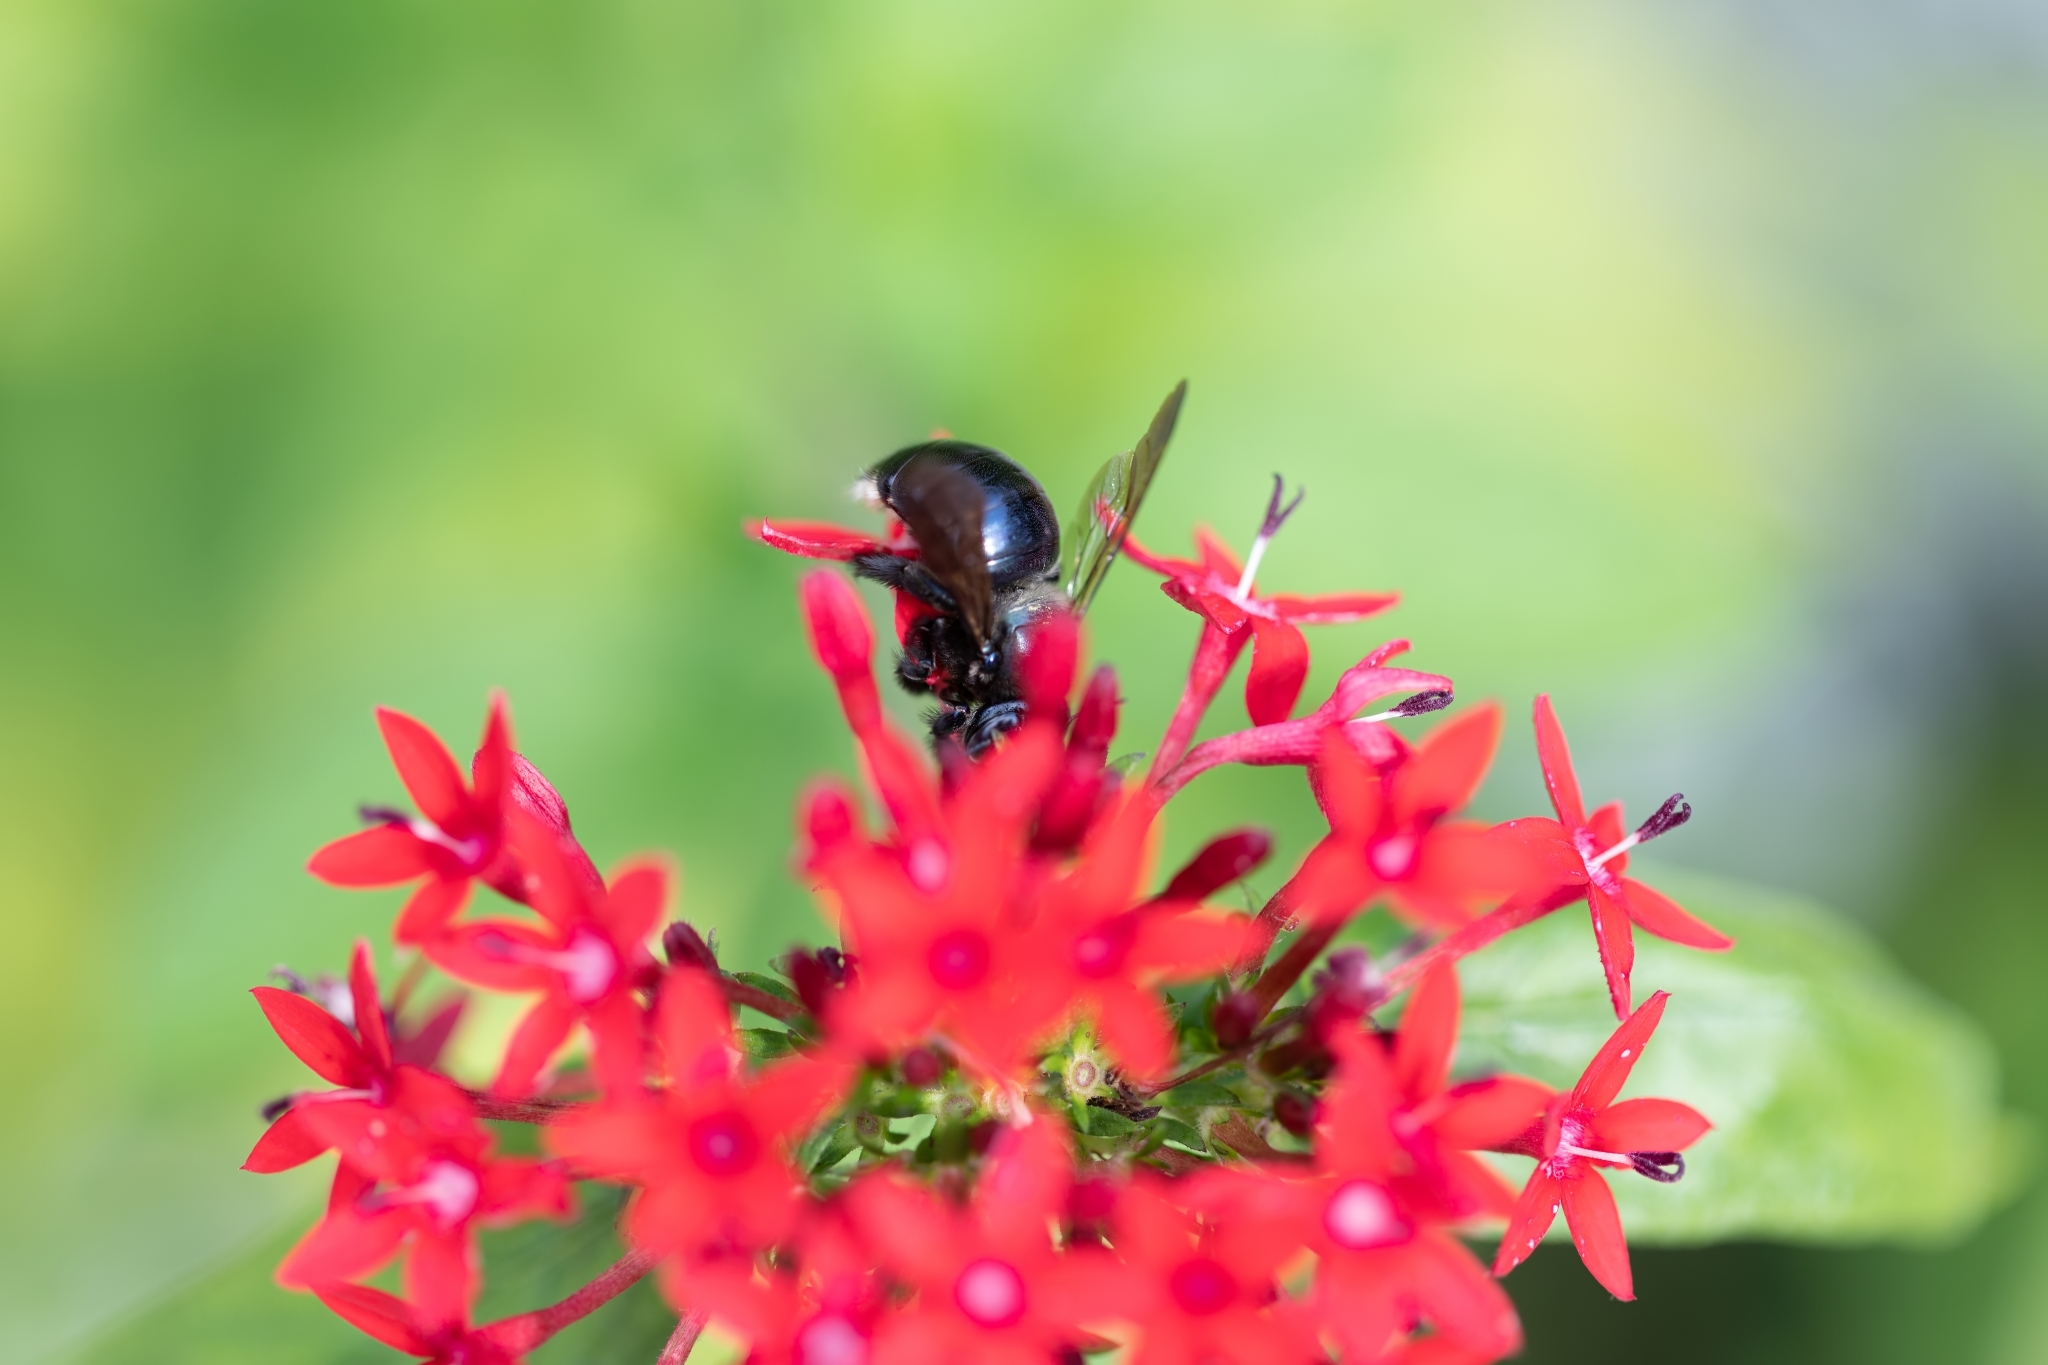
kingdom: Animalia
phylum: Arthropoda
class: Insecta
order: Hymenoptera
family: Apidae
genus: Xylocopa
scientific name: Xylocopa micans
